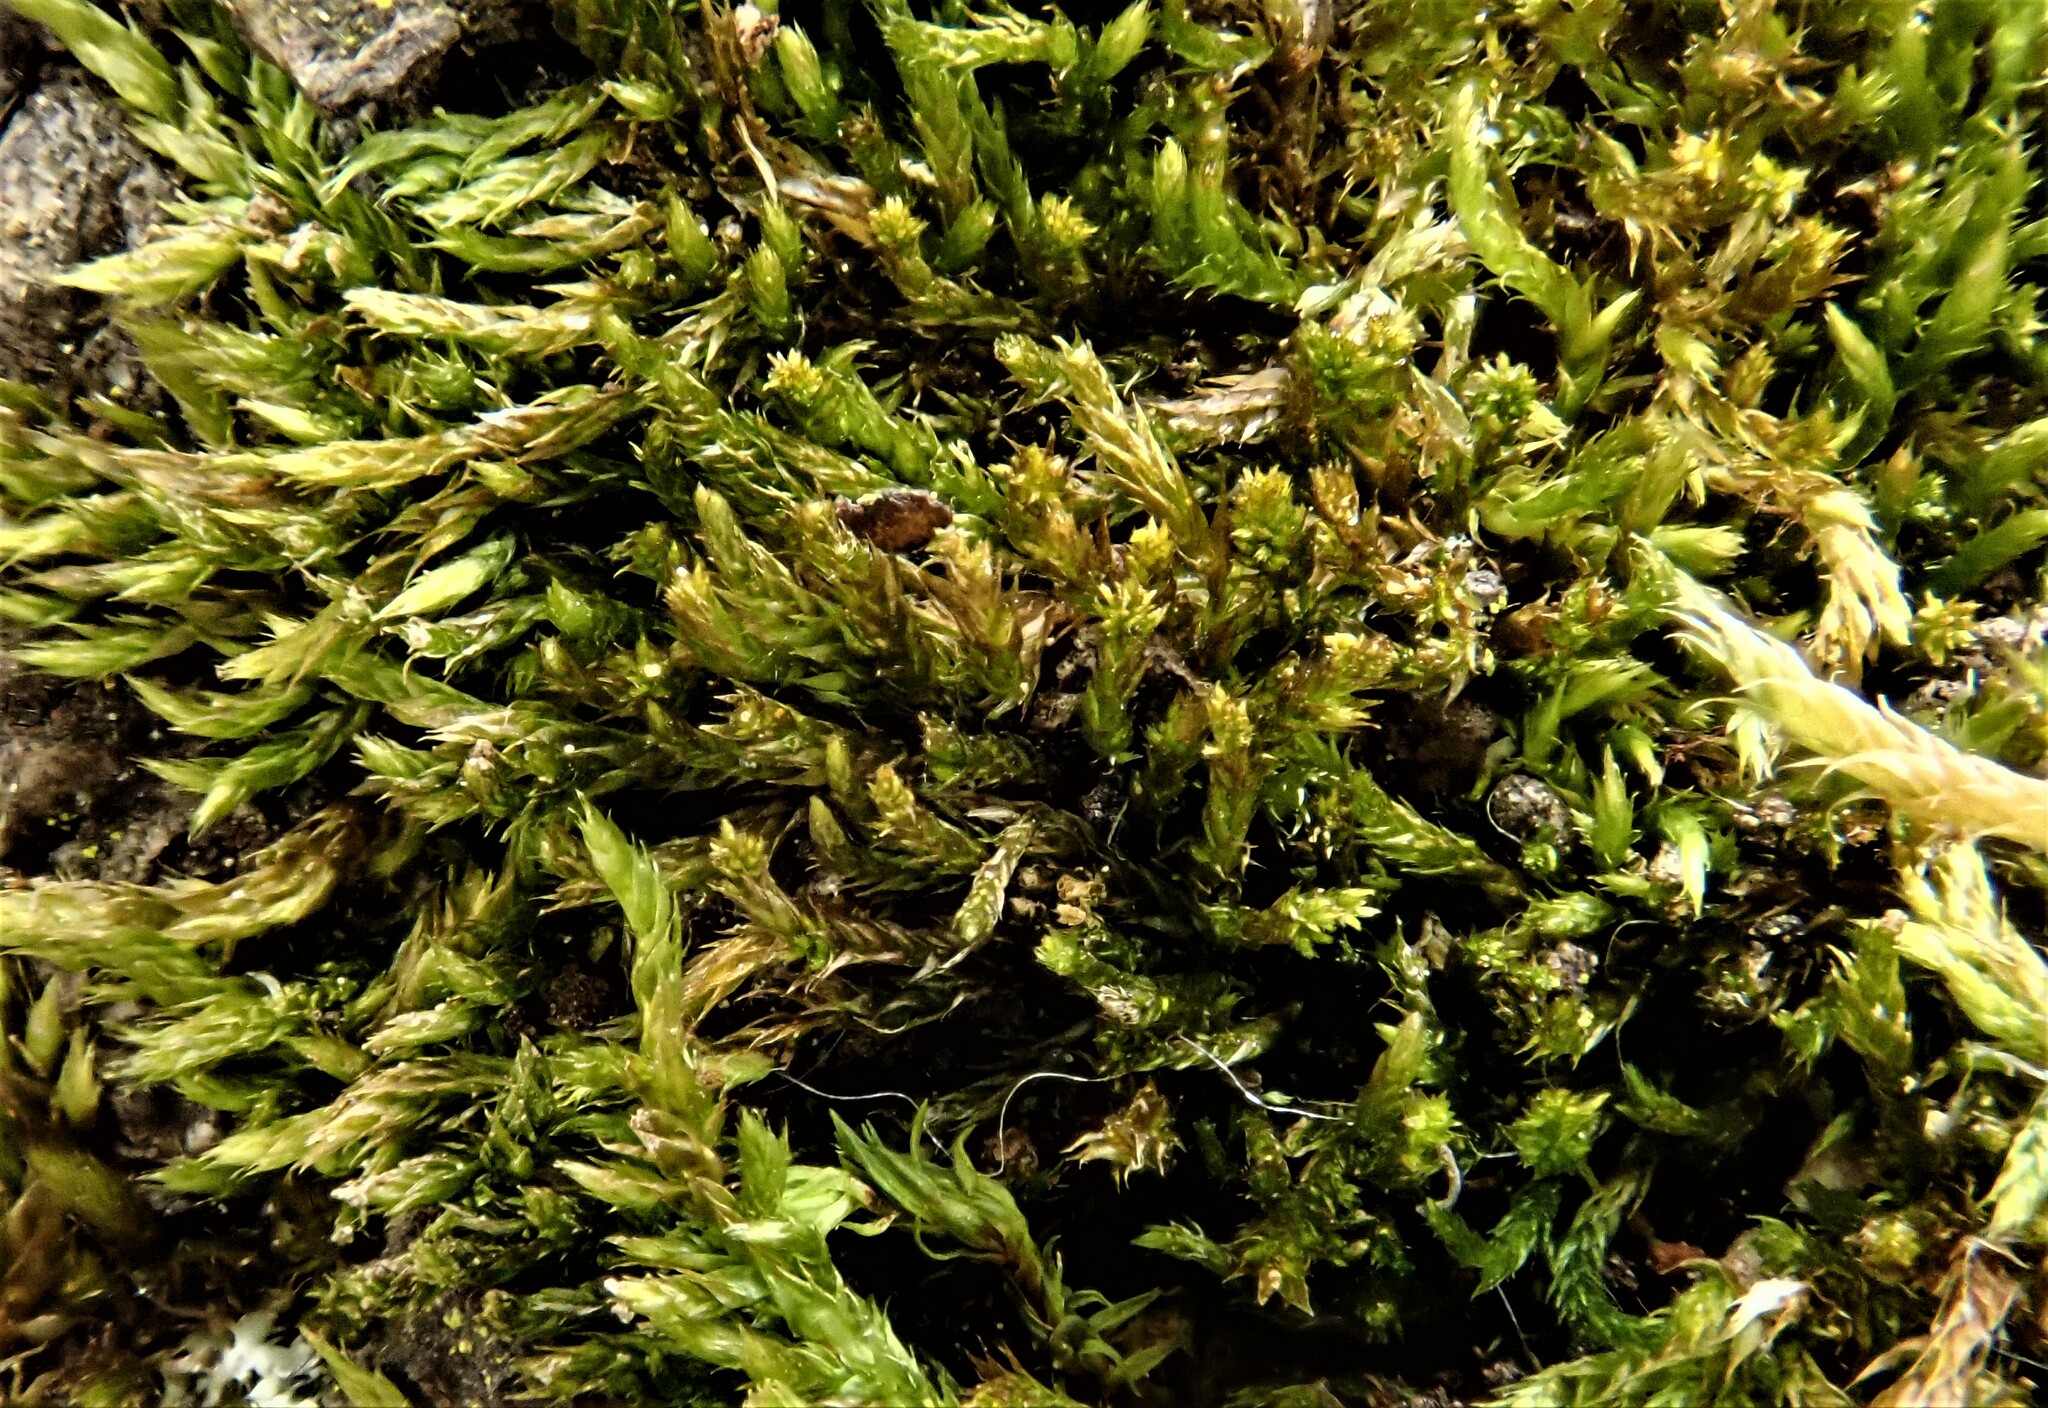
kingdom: Plantae
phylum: Bryophyta
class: Bryopsida
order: Hypnales
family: Pylaisiadelphaceae
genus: Platygyrium
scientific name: Platygyrium repens
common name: Flat-brocade moss
